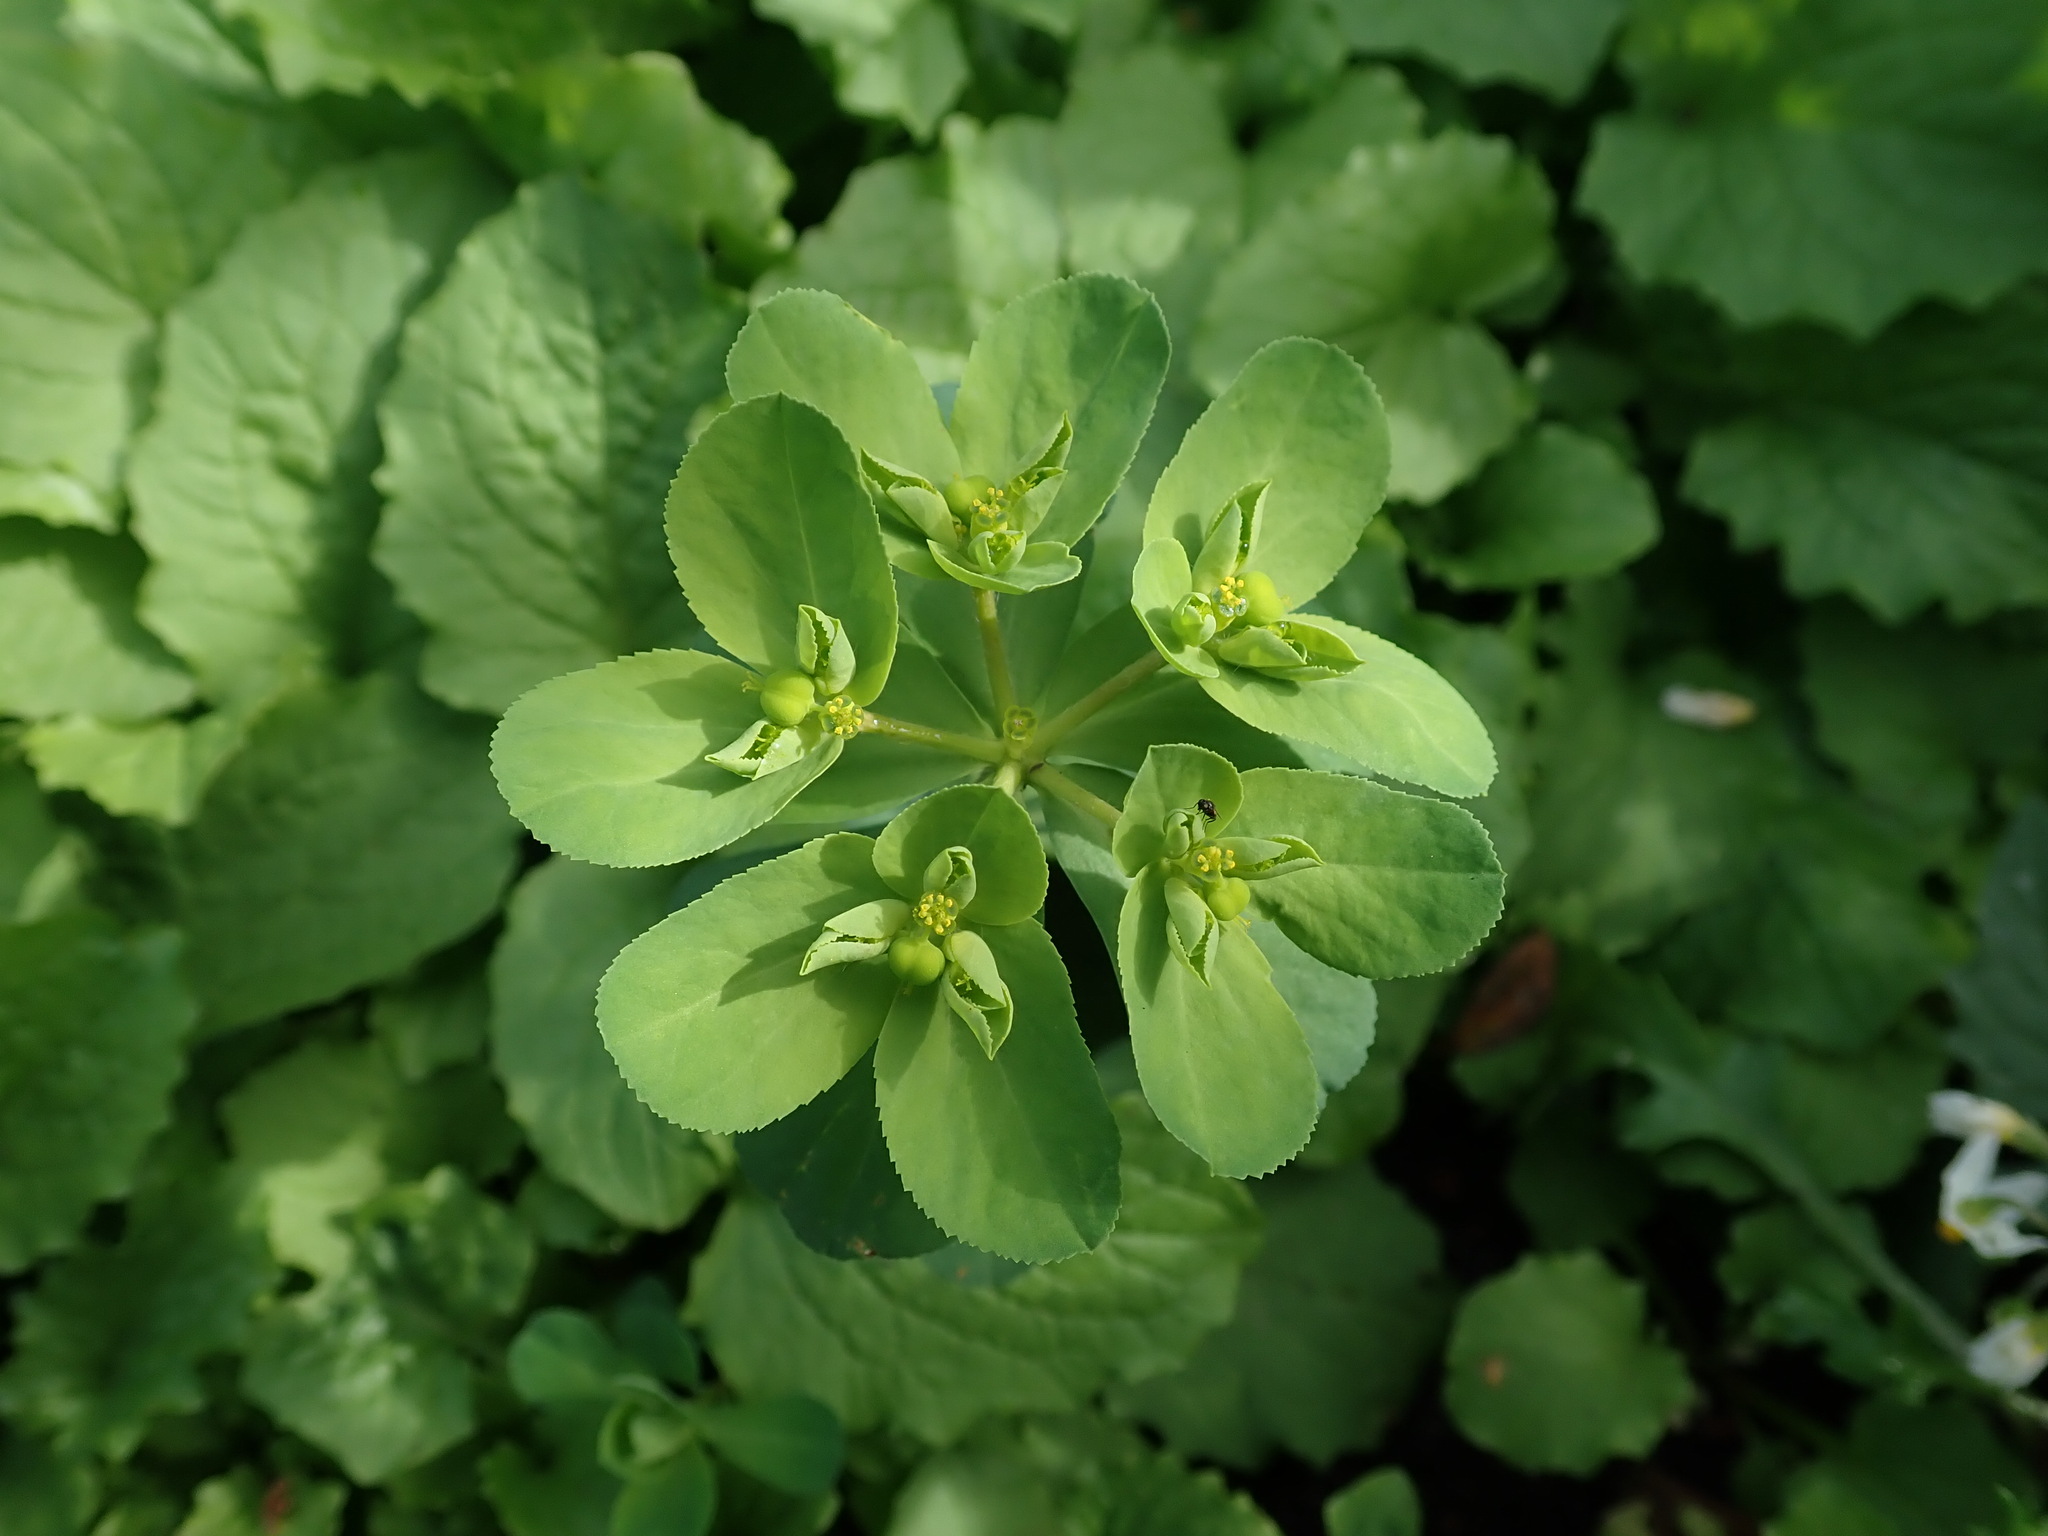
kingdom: Plantae
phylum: Tracheophyta
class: Magnoliopsida
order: Malpighiales
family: Euphorbiaceae
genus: Euphorbia
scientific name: Euphorbia helioscopia
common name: Sun spurge
